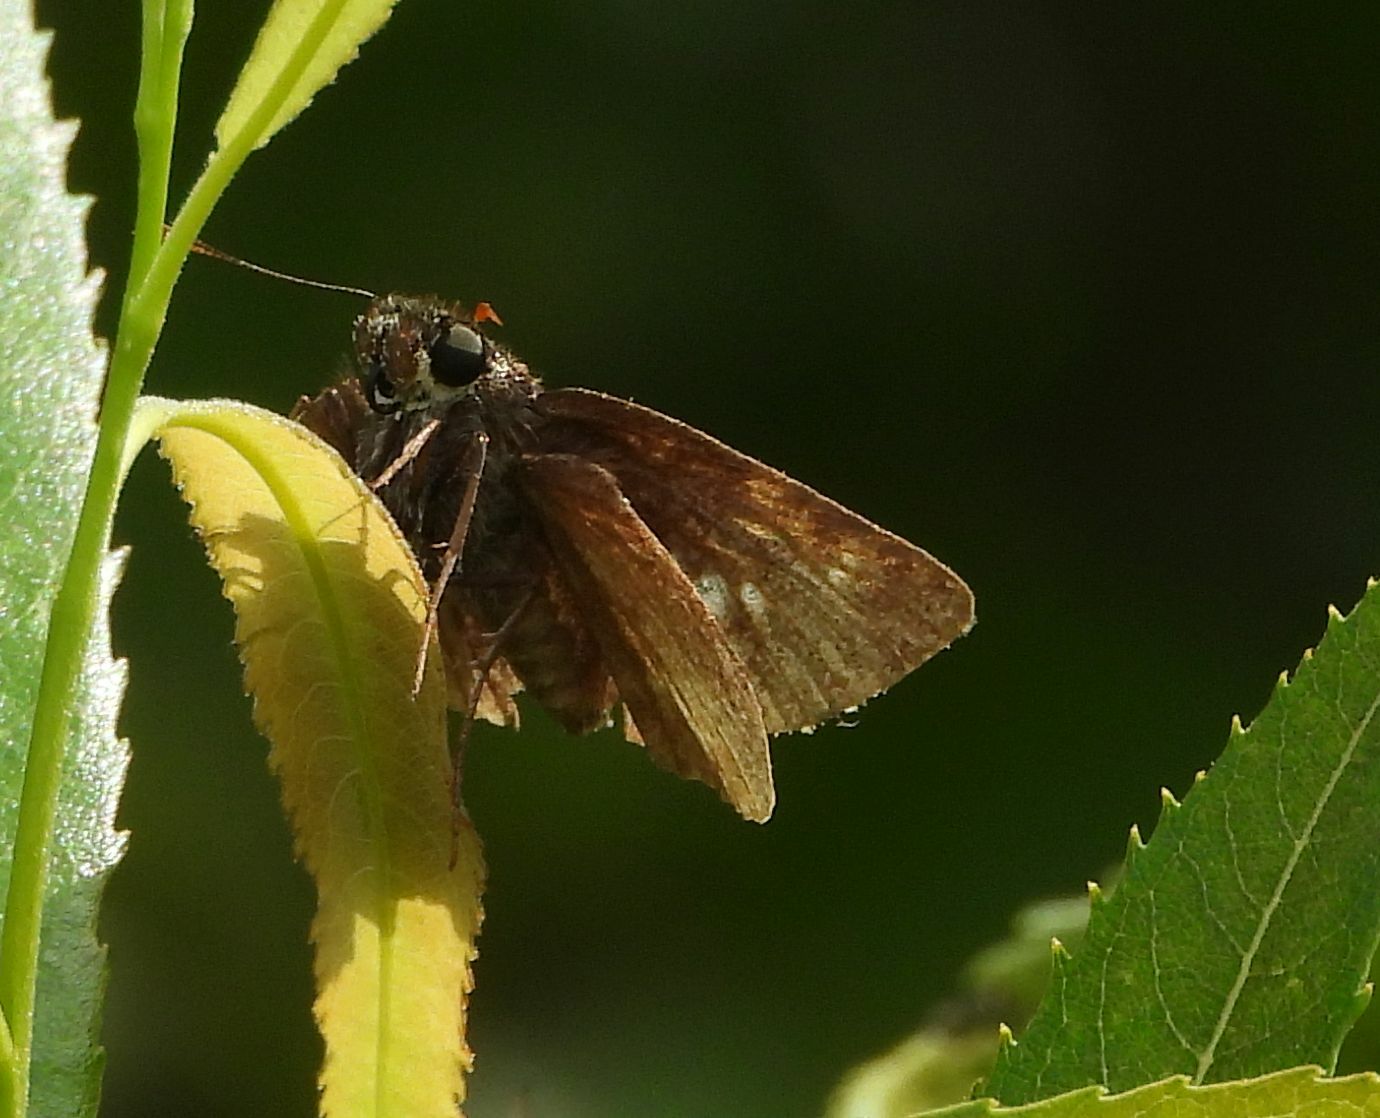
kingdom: Animalia
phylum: Arthropoda
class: Insecta
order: Lepidoptera
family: Hesperiidae
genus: Euphyes
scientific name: Euphyes vestris
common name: Dun skipper
